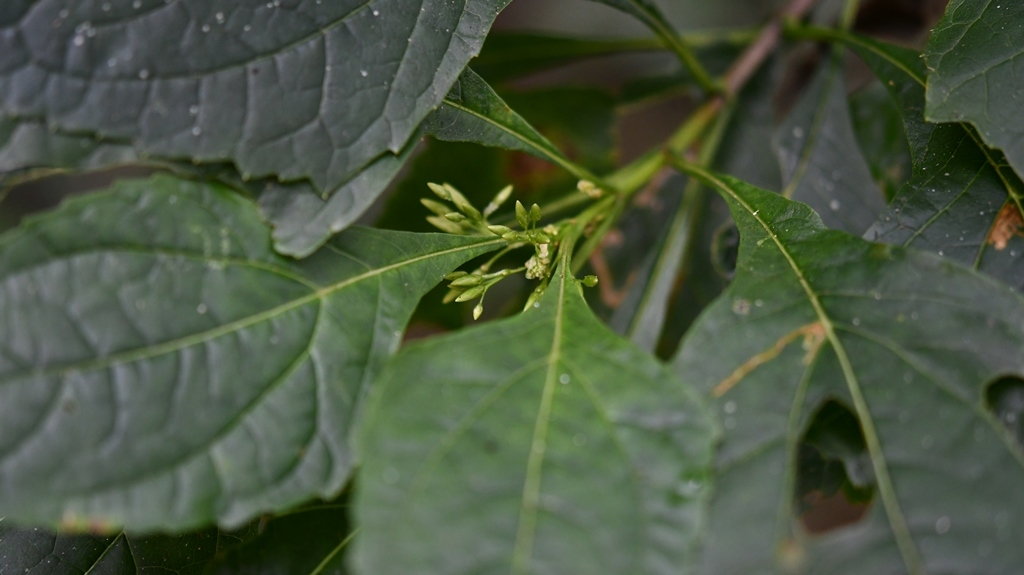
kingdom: Plantae
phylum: Tracheophyta
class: Magnoliopsida
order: Asterales
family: Asteraceae
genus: Kyrsteniopsis
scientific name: Kyrsteniopsis iltisii
